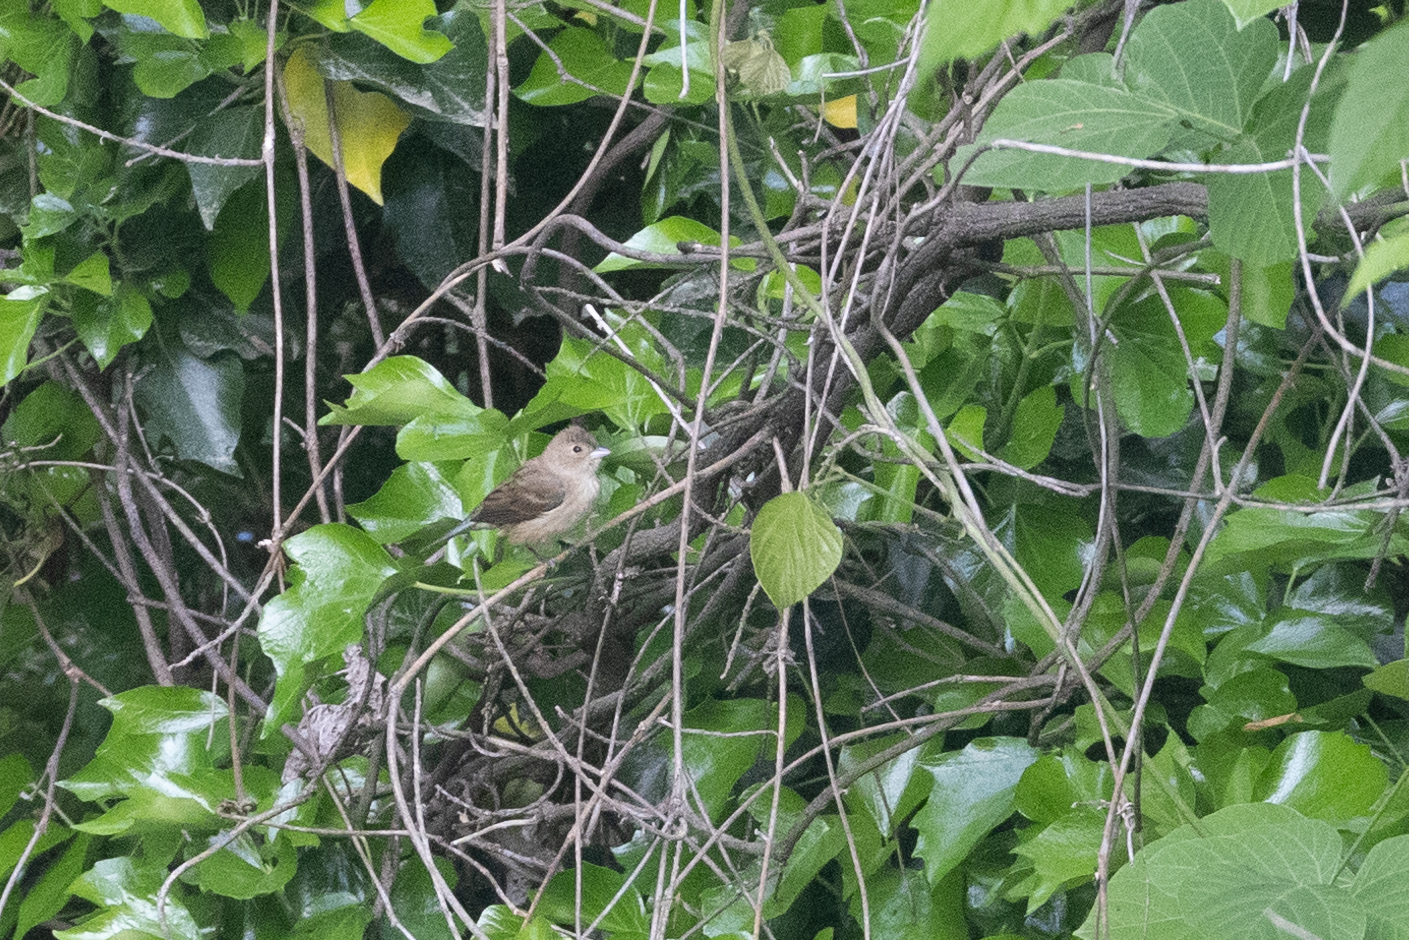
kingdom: Animalia
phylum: Chordata
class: Aves
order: Passeriformes
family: Cardinalidae
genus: Passerina
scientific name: Passerina cyanea
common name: Indigo bunting
